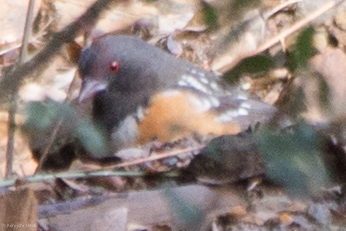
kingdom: Animalia
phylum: Chordata
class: Aves
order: Passeriformes
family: Passerellidae
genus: Pipilo
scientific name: Pipilo maculatus
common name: Spotted towhee
